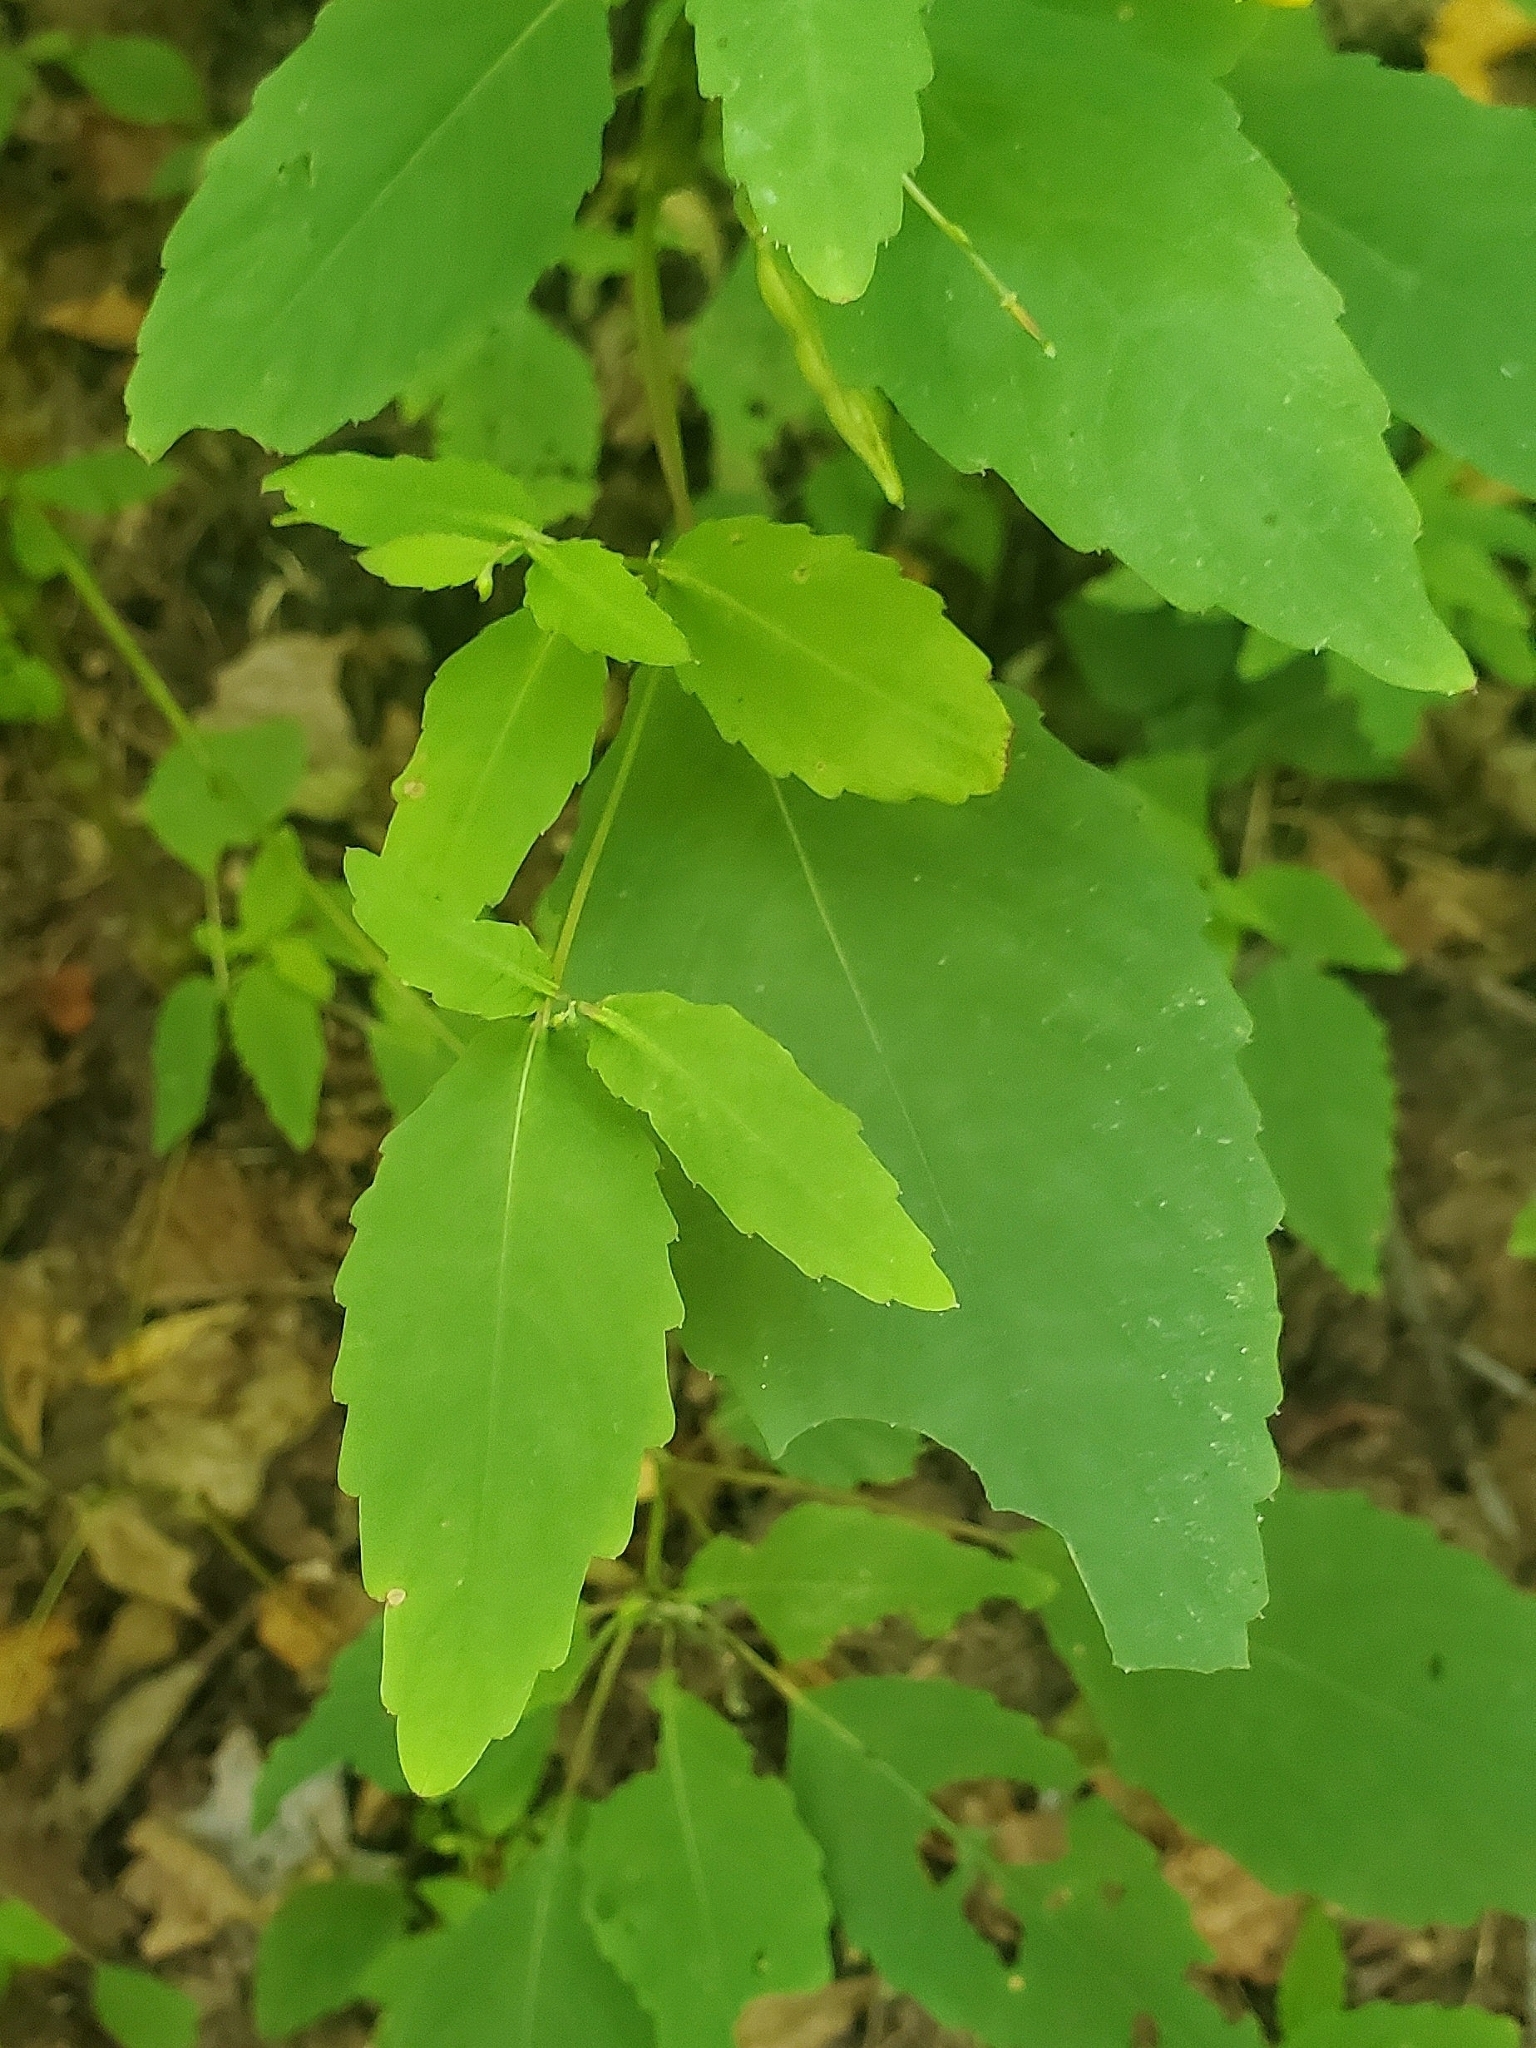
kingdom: Plantae
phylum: Tracheophyta
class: Magnoliopsida
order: Ericales
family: Balsaminaceae
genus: Impatiens
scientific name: Impatiens pallida
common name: Pale snapweed
